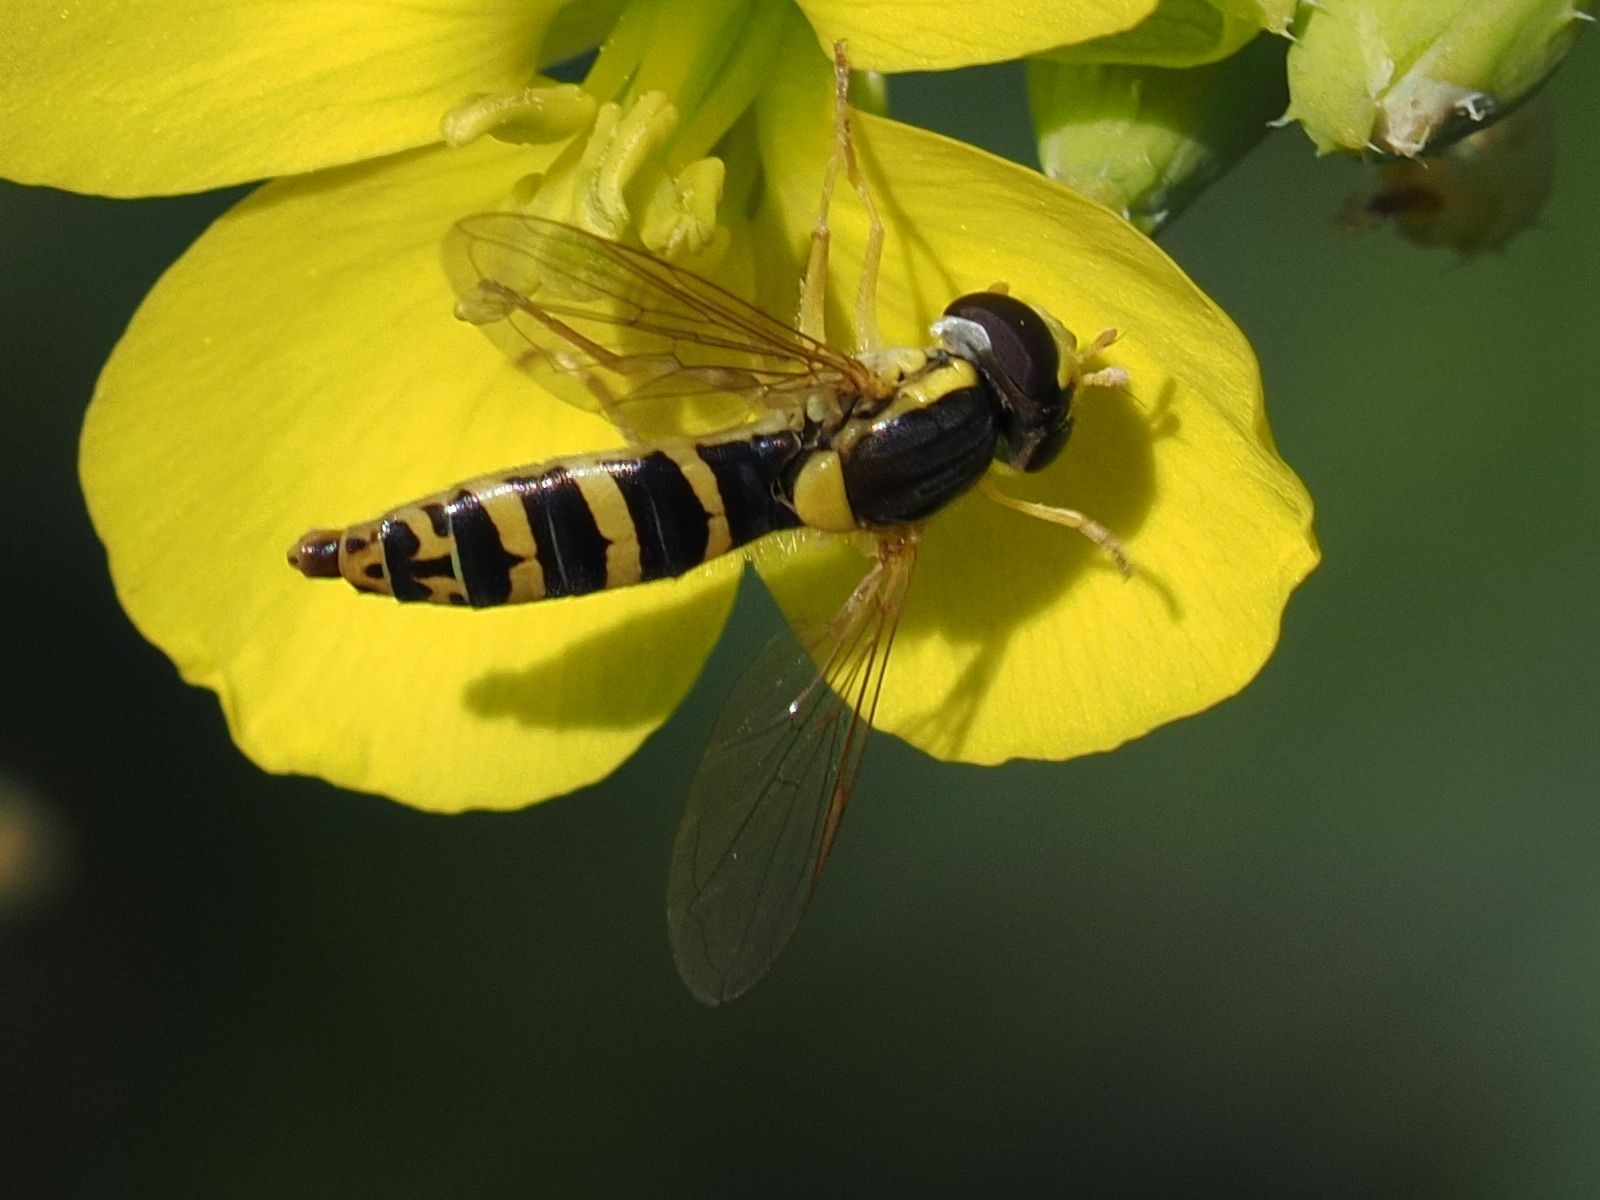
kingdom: Animalia
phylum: Arthropoda
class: Insecta
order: Diptera
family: Syrphidae
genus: Sphaerophoria
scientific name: Sphaerophoria
